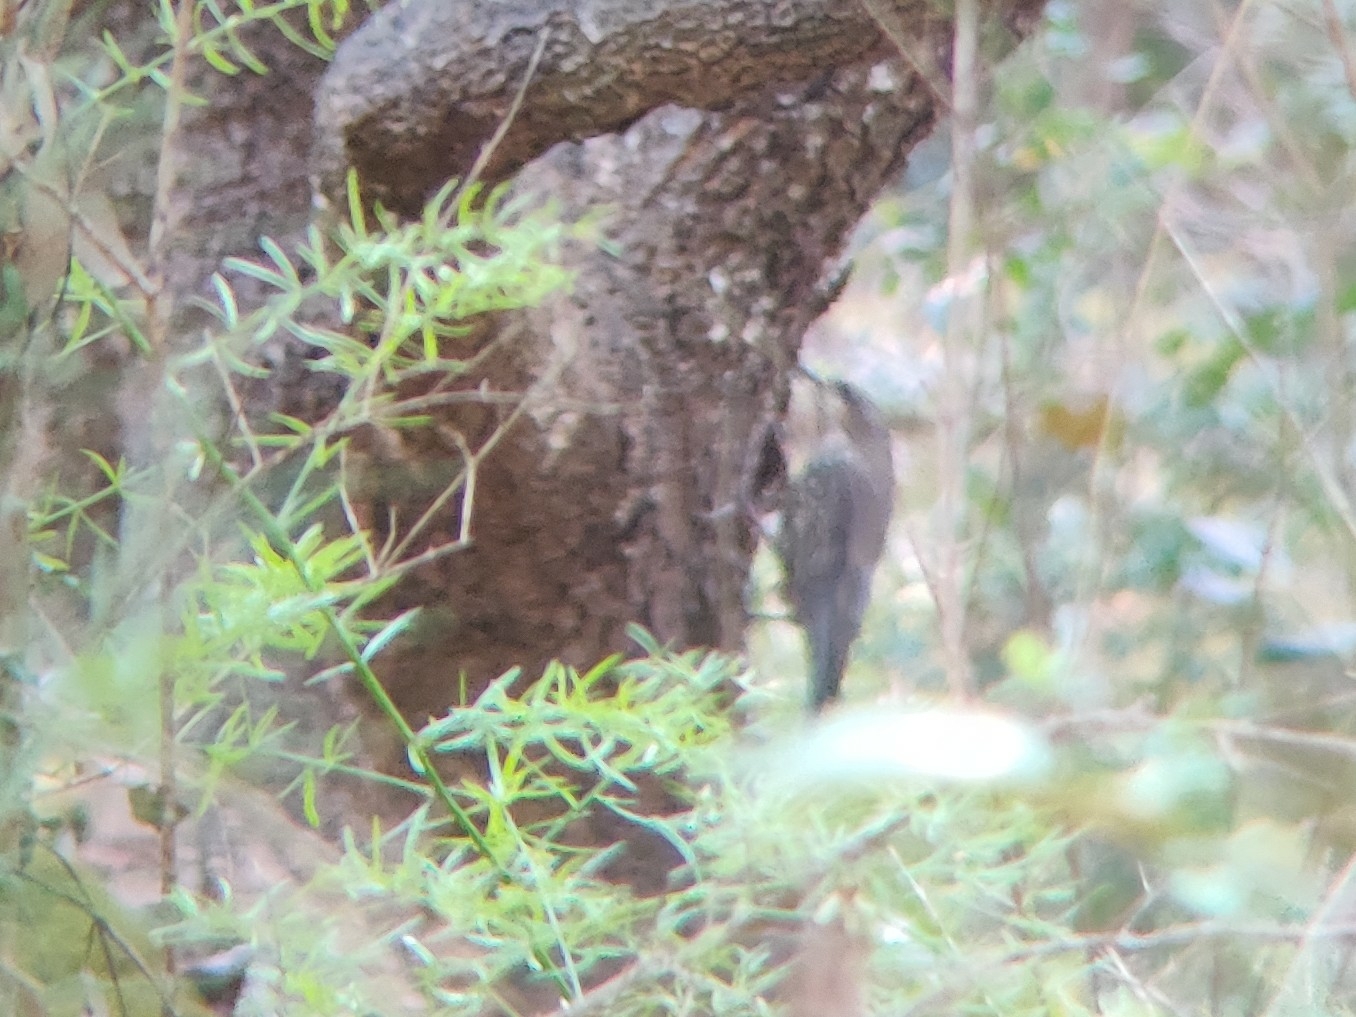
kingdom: Animalia
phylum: Chordata
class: Aves
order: Passeriformes
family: Climacteridae
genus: Cormobates
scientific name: Cormobates leucophaea
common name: White-throated treecreeper
